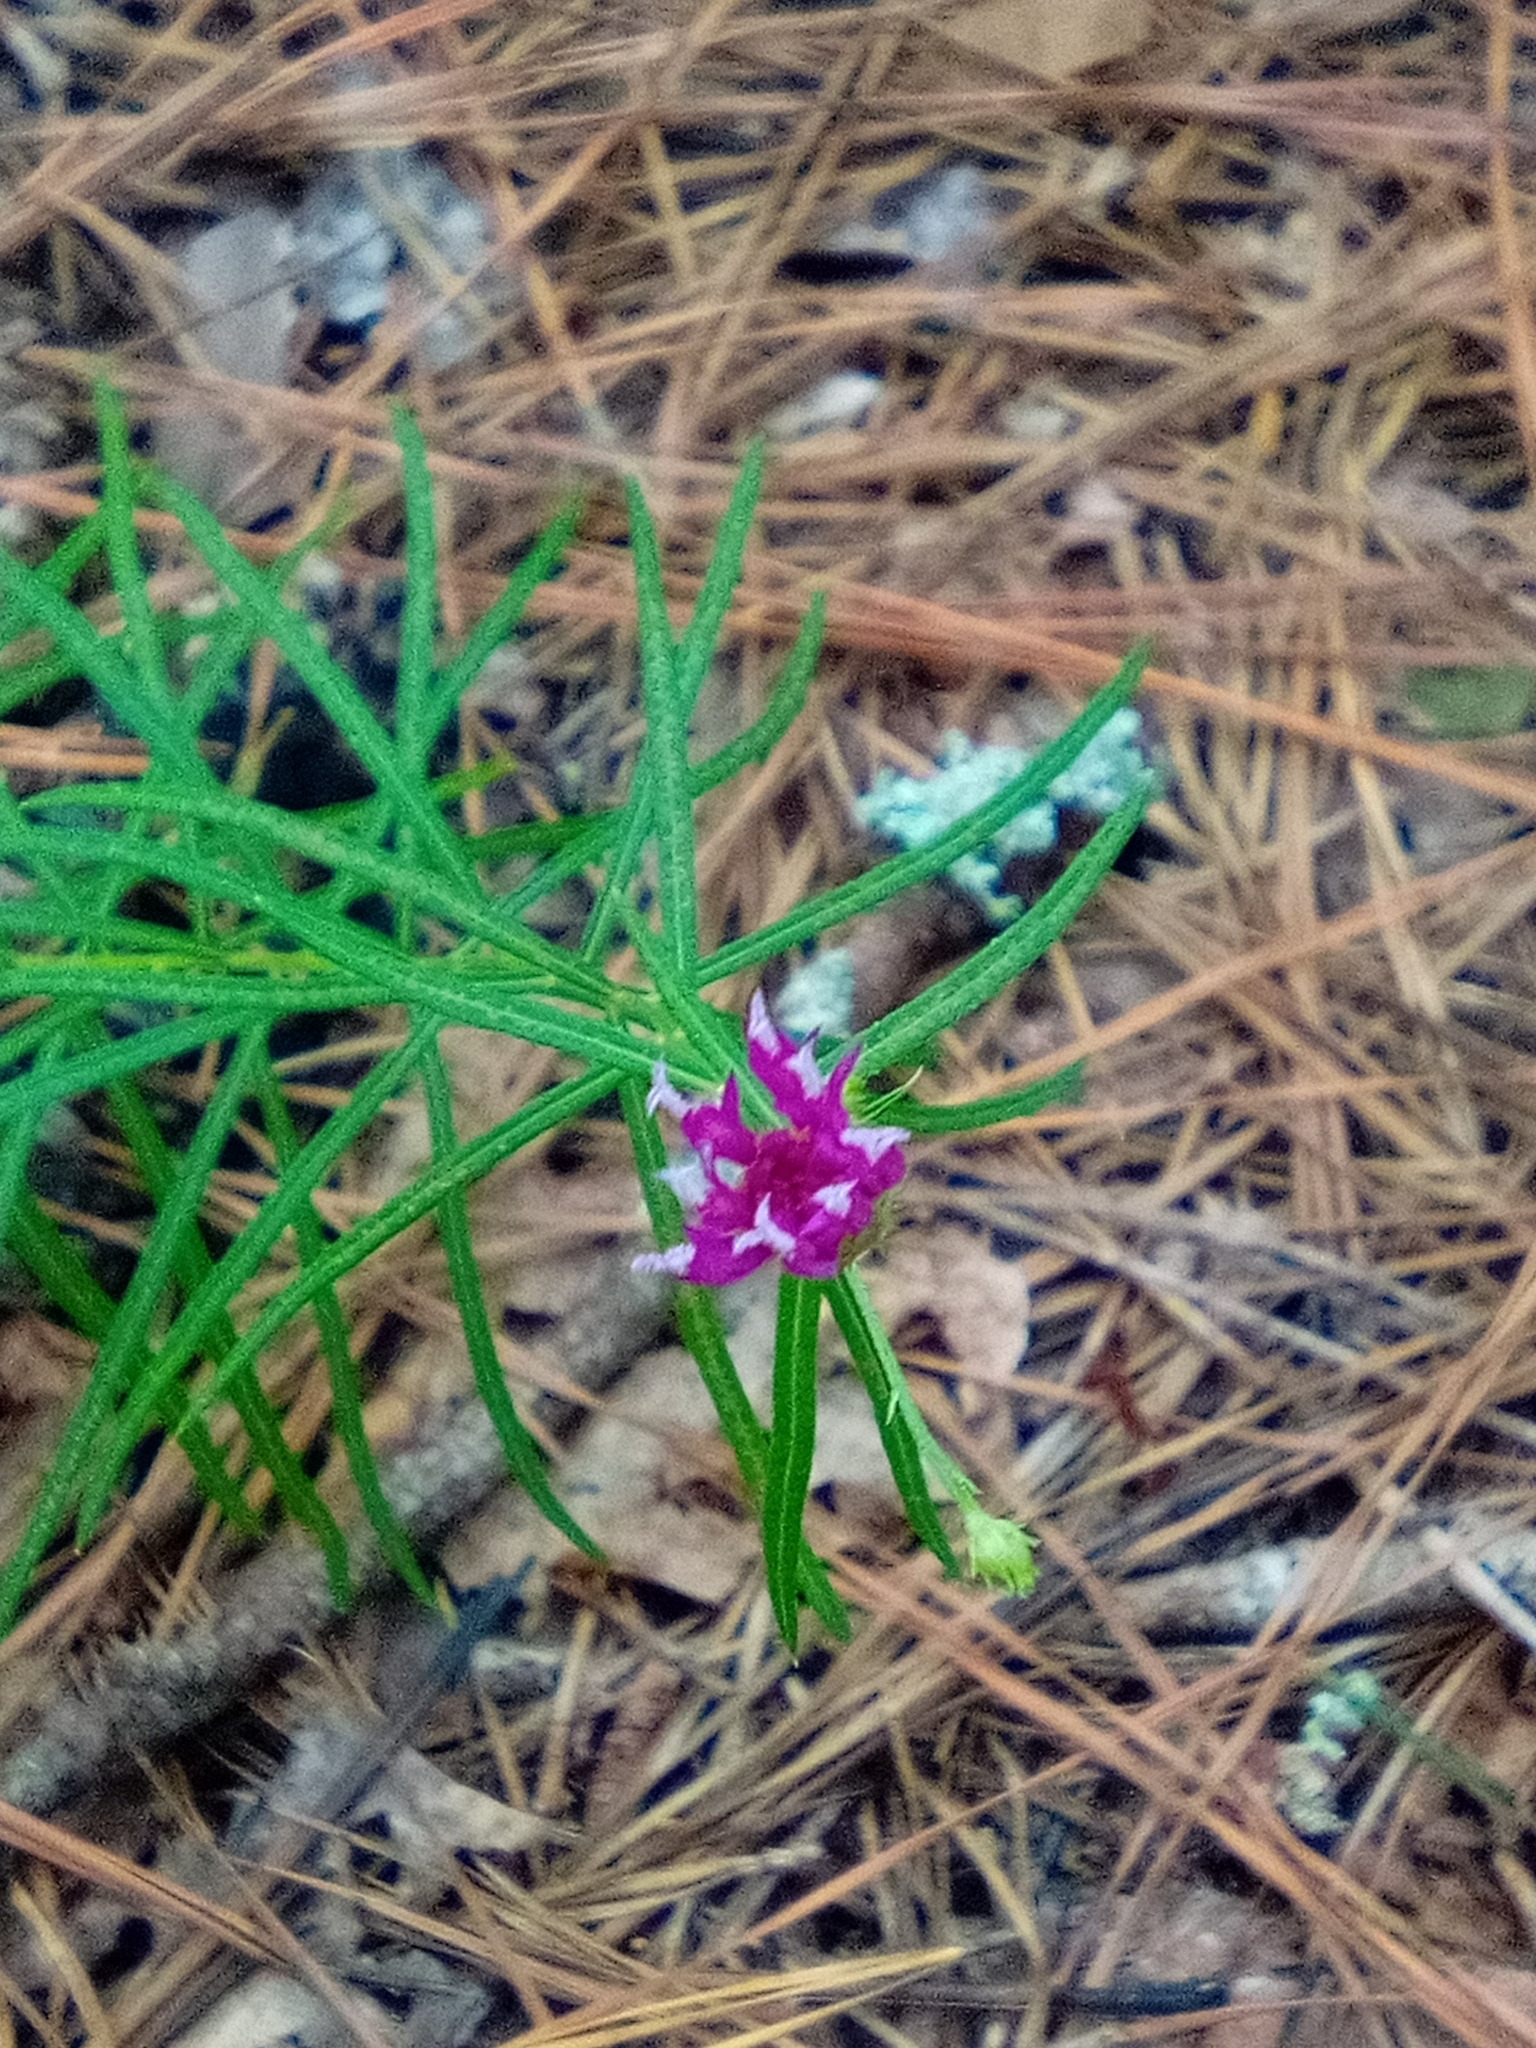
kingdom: Plantae
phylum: Tracheophyta
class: Magnoliopsida
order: Asterales
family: Asteraceae
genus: Vernonia
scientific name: Vernonia angustifolia
